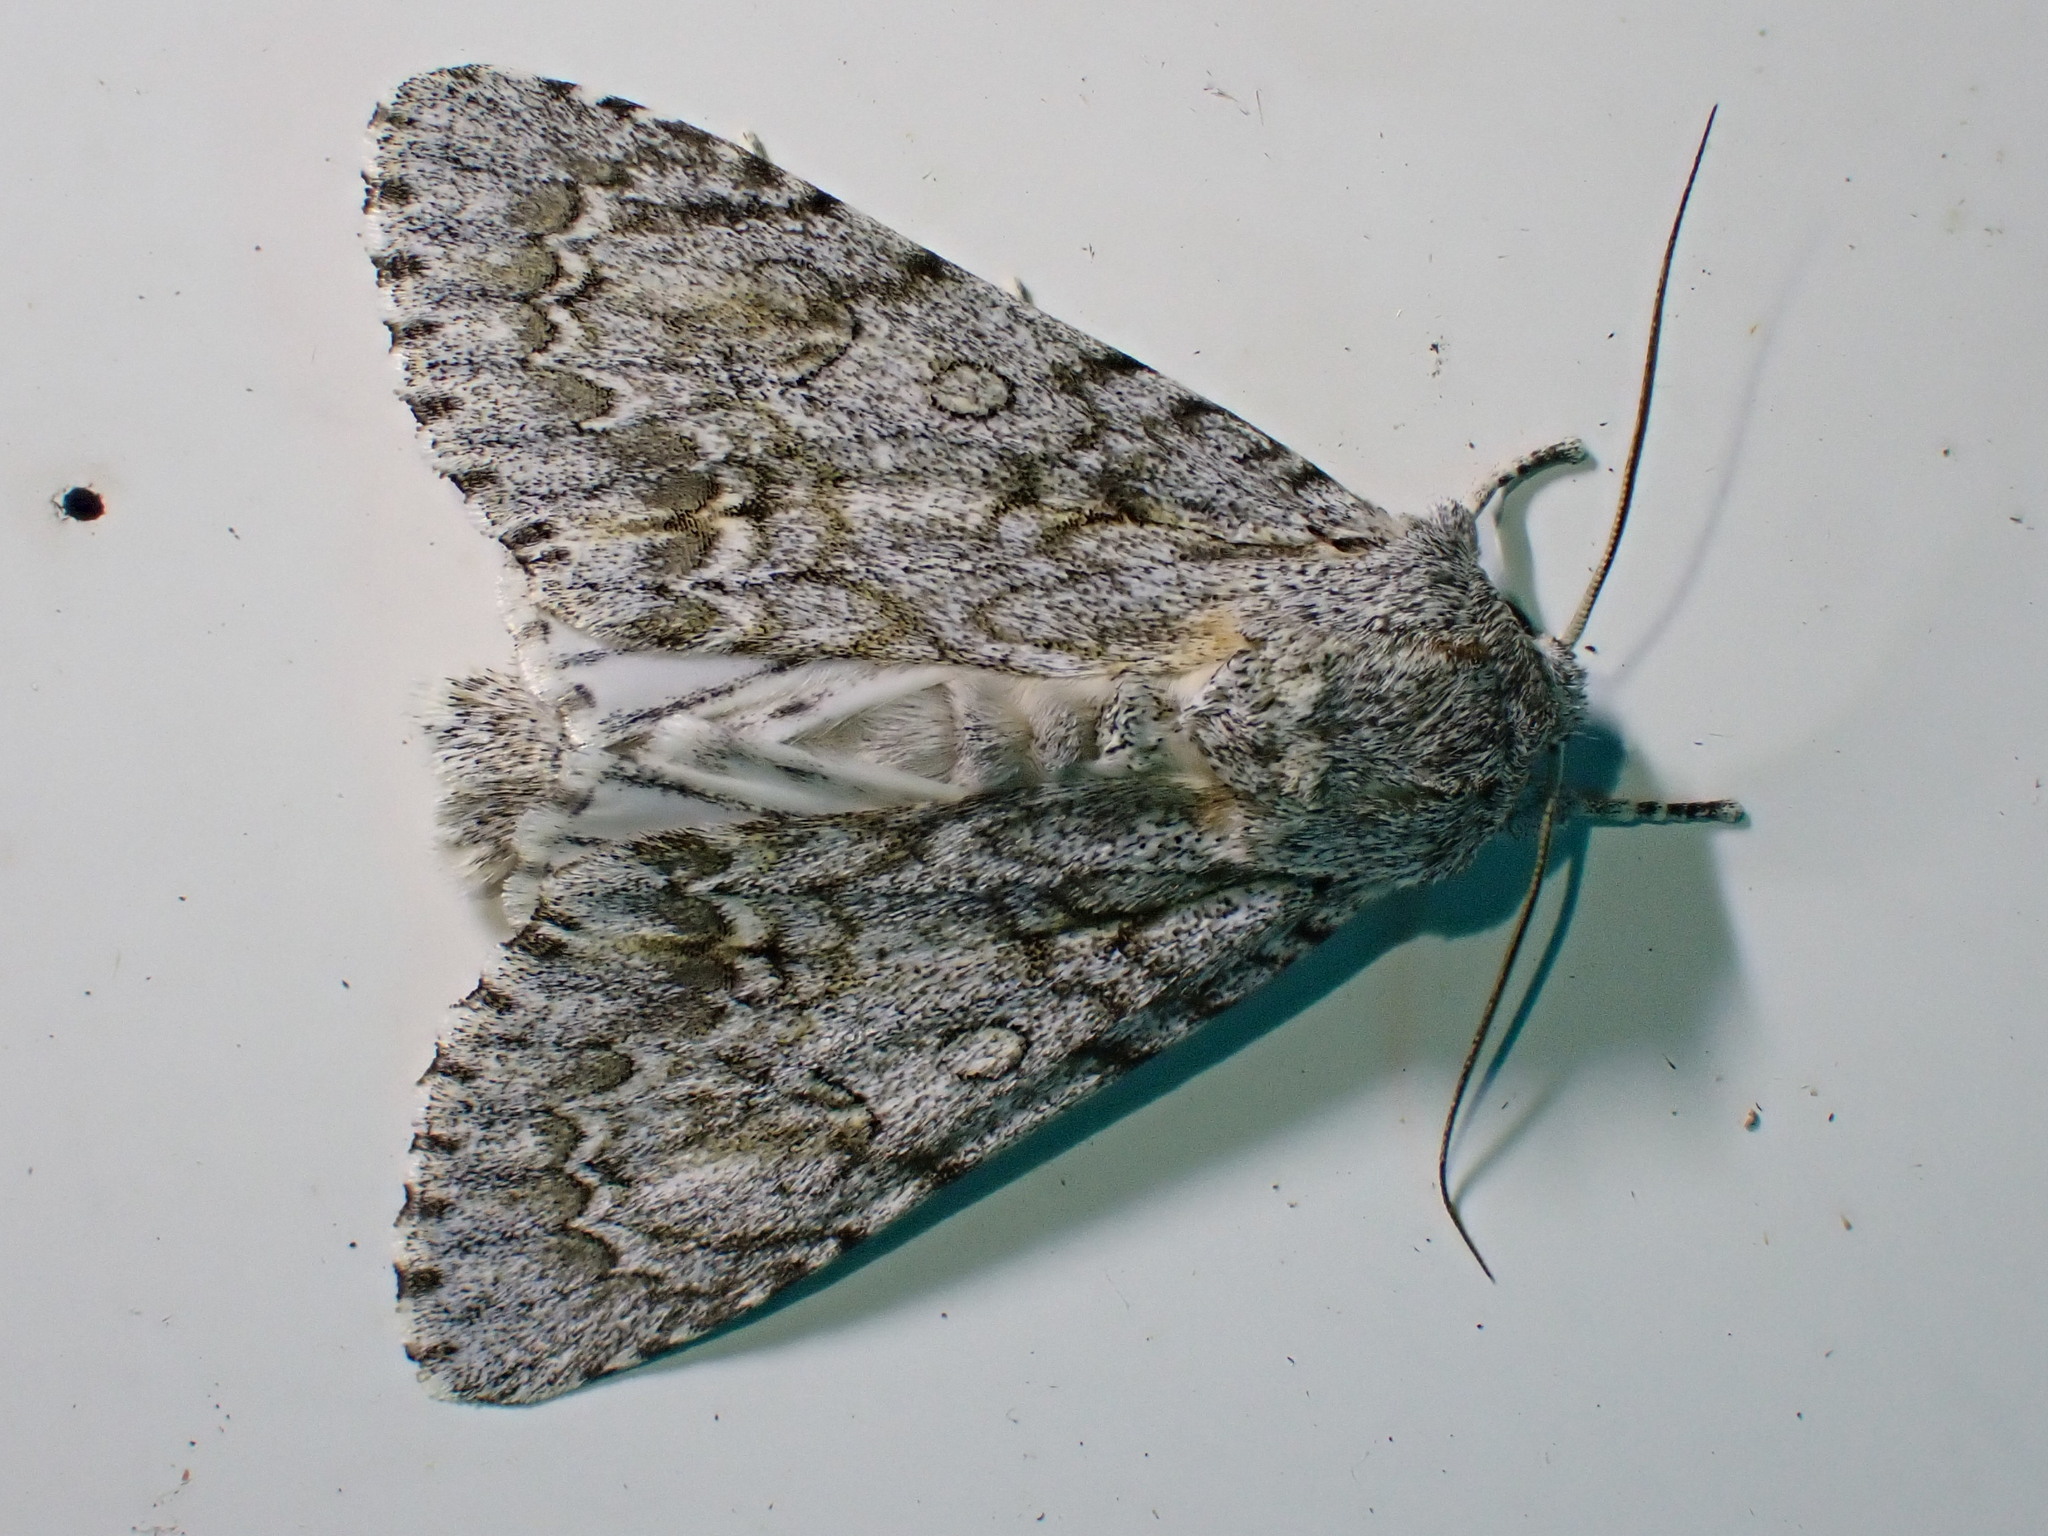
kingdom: Animalia
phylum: Arthropoda
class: Insecta
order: Lepidoptera
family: Noctuidae
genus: Acronicta
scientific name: Acronicta aceris
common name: Sycamore
